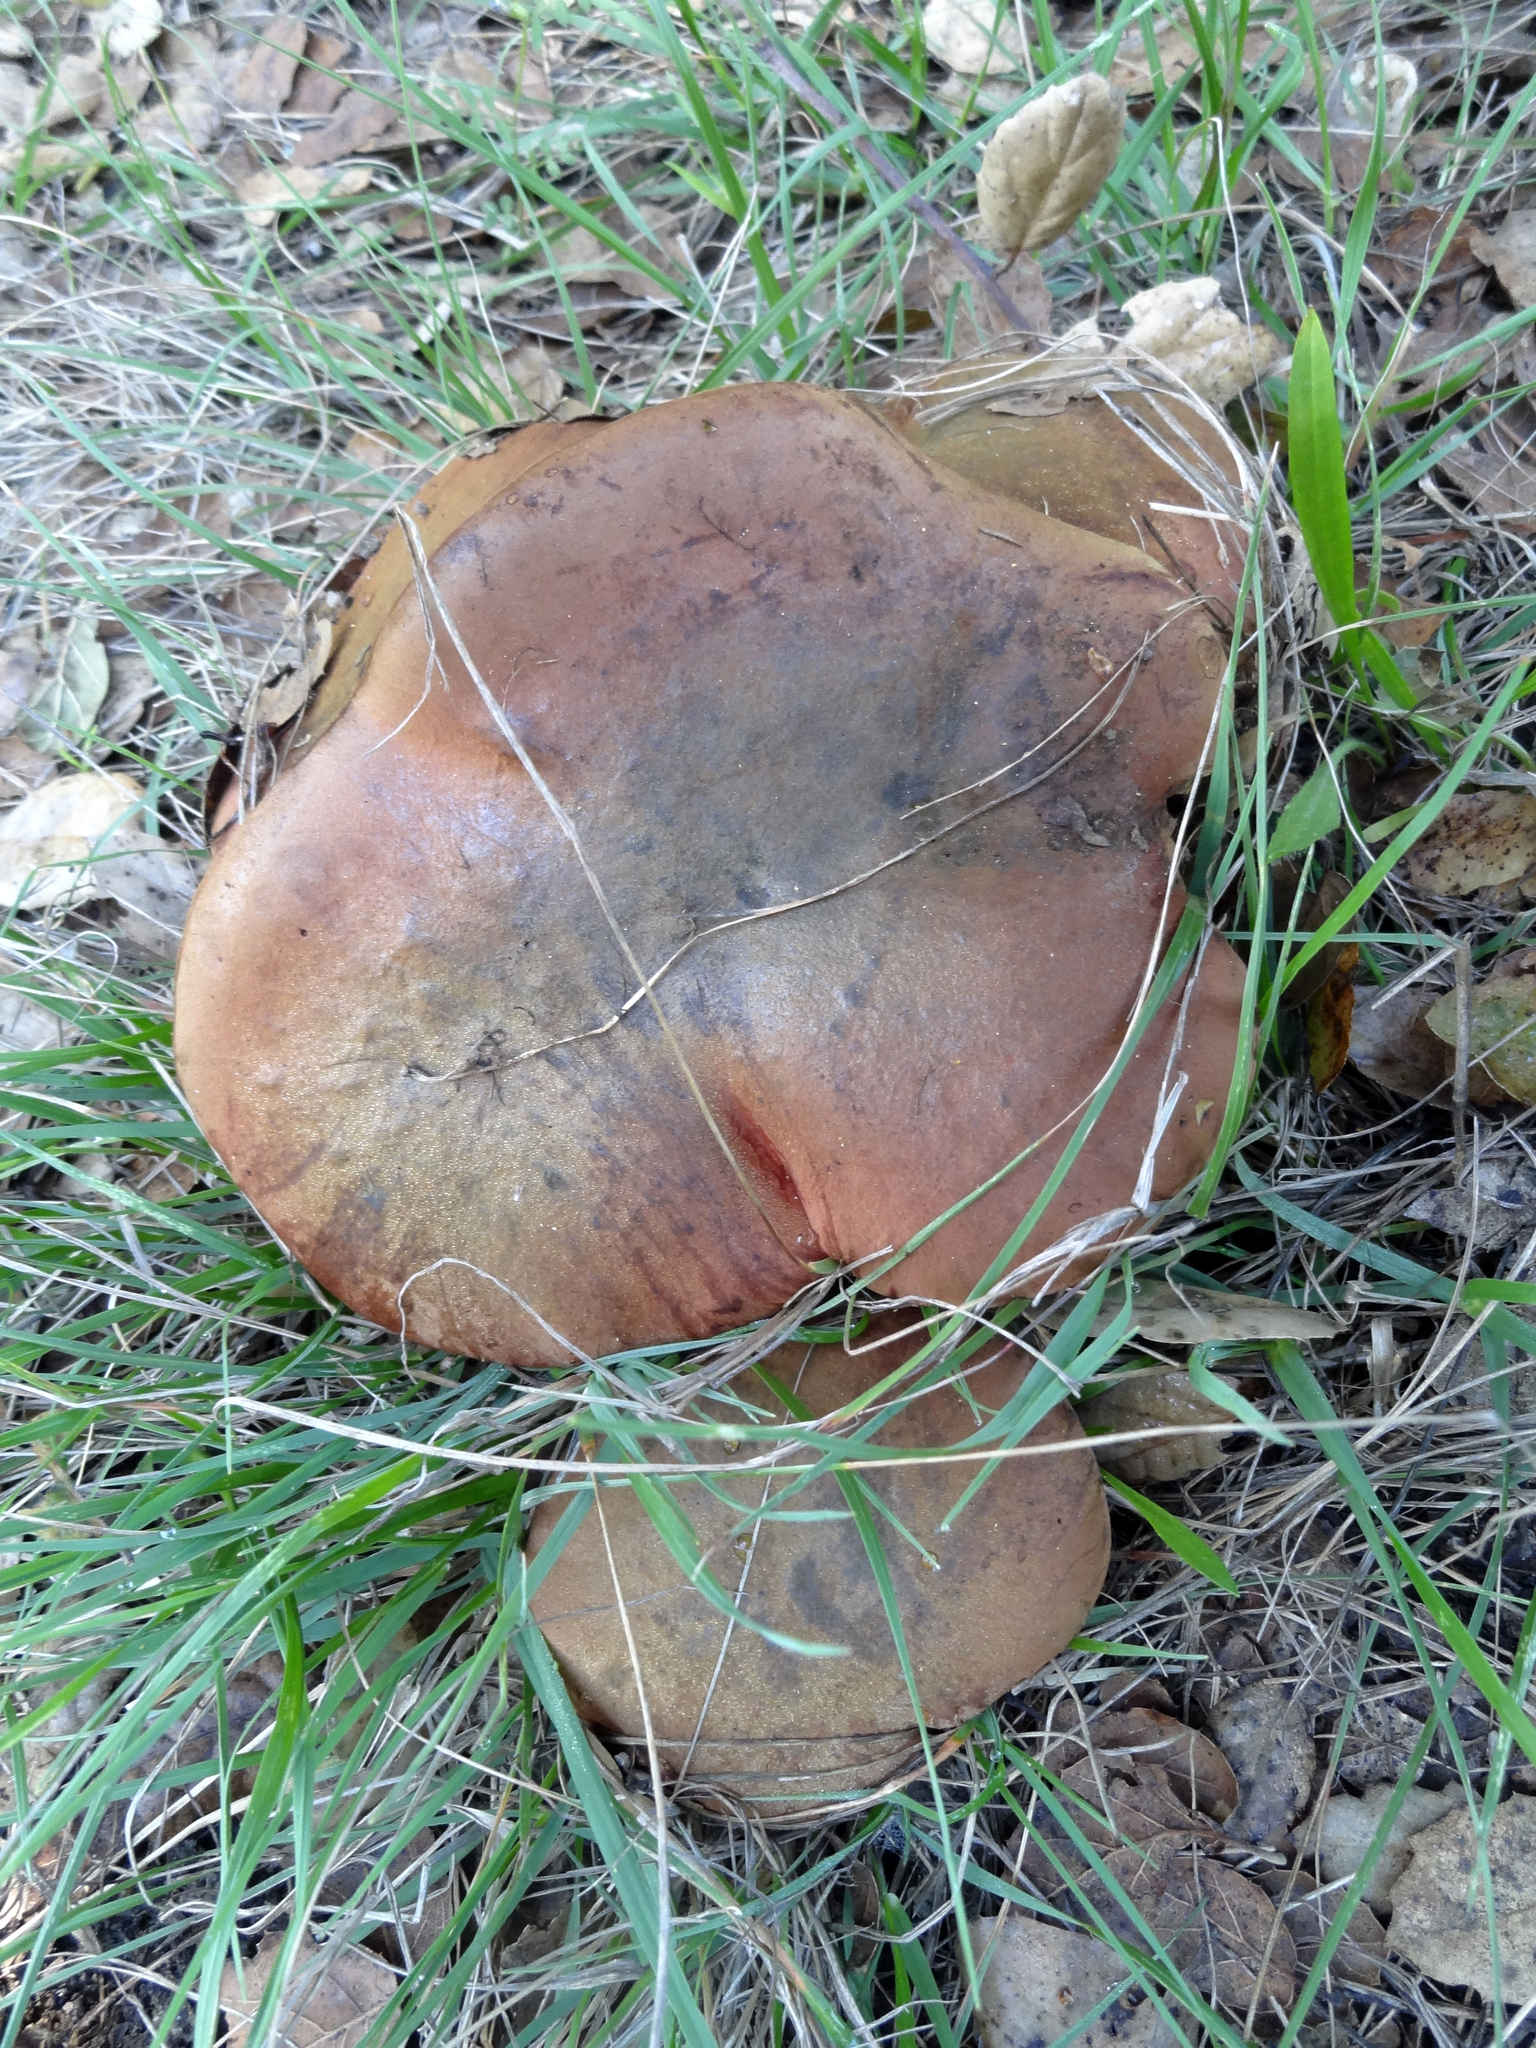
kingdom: Fungi
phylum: Basidiomycota
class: Agaricomycetes
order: Boletales
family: Boletaceae
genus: Suillellus
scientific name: Suillellus amygdalinus
